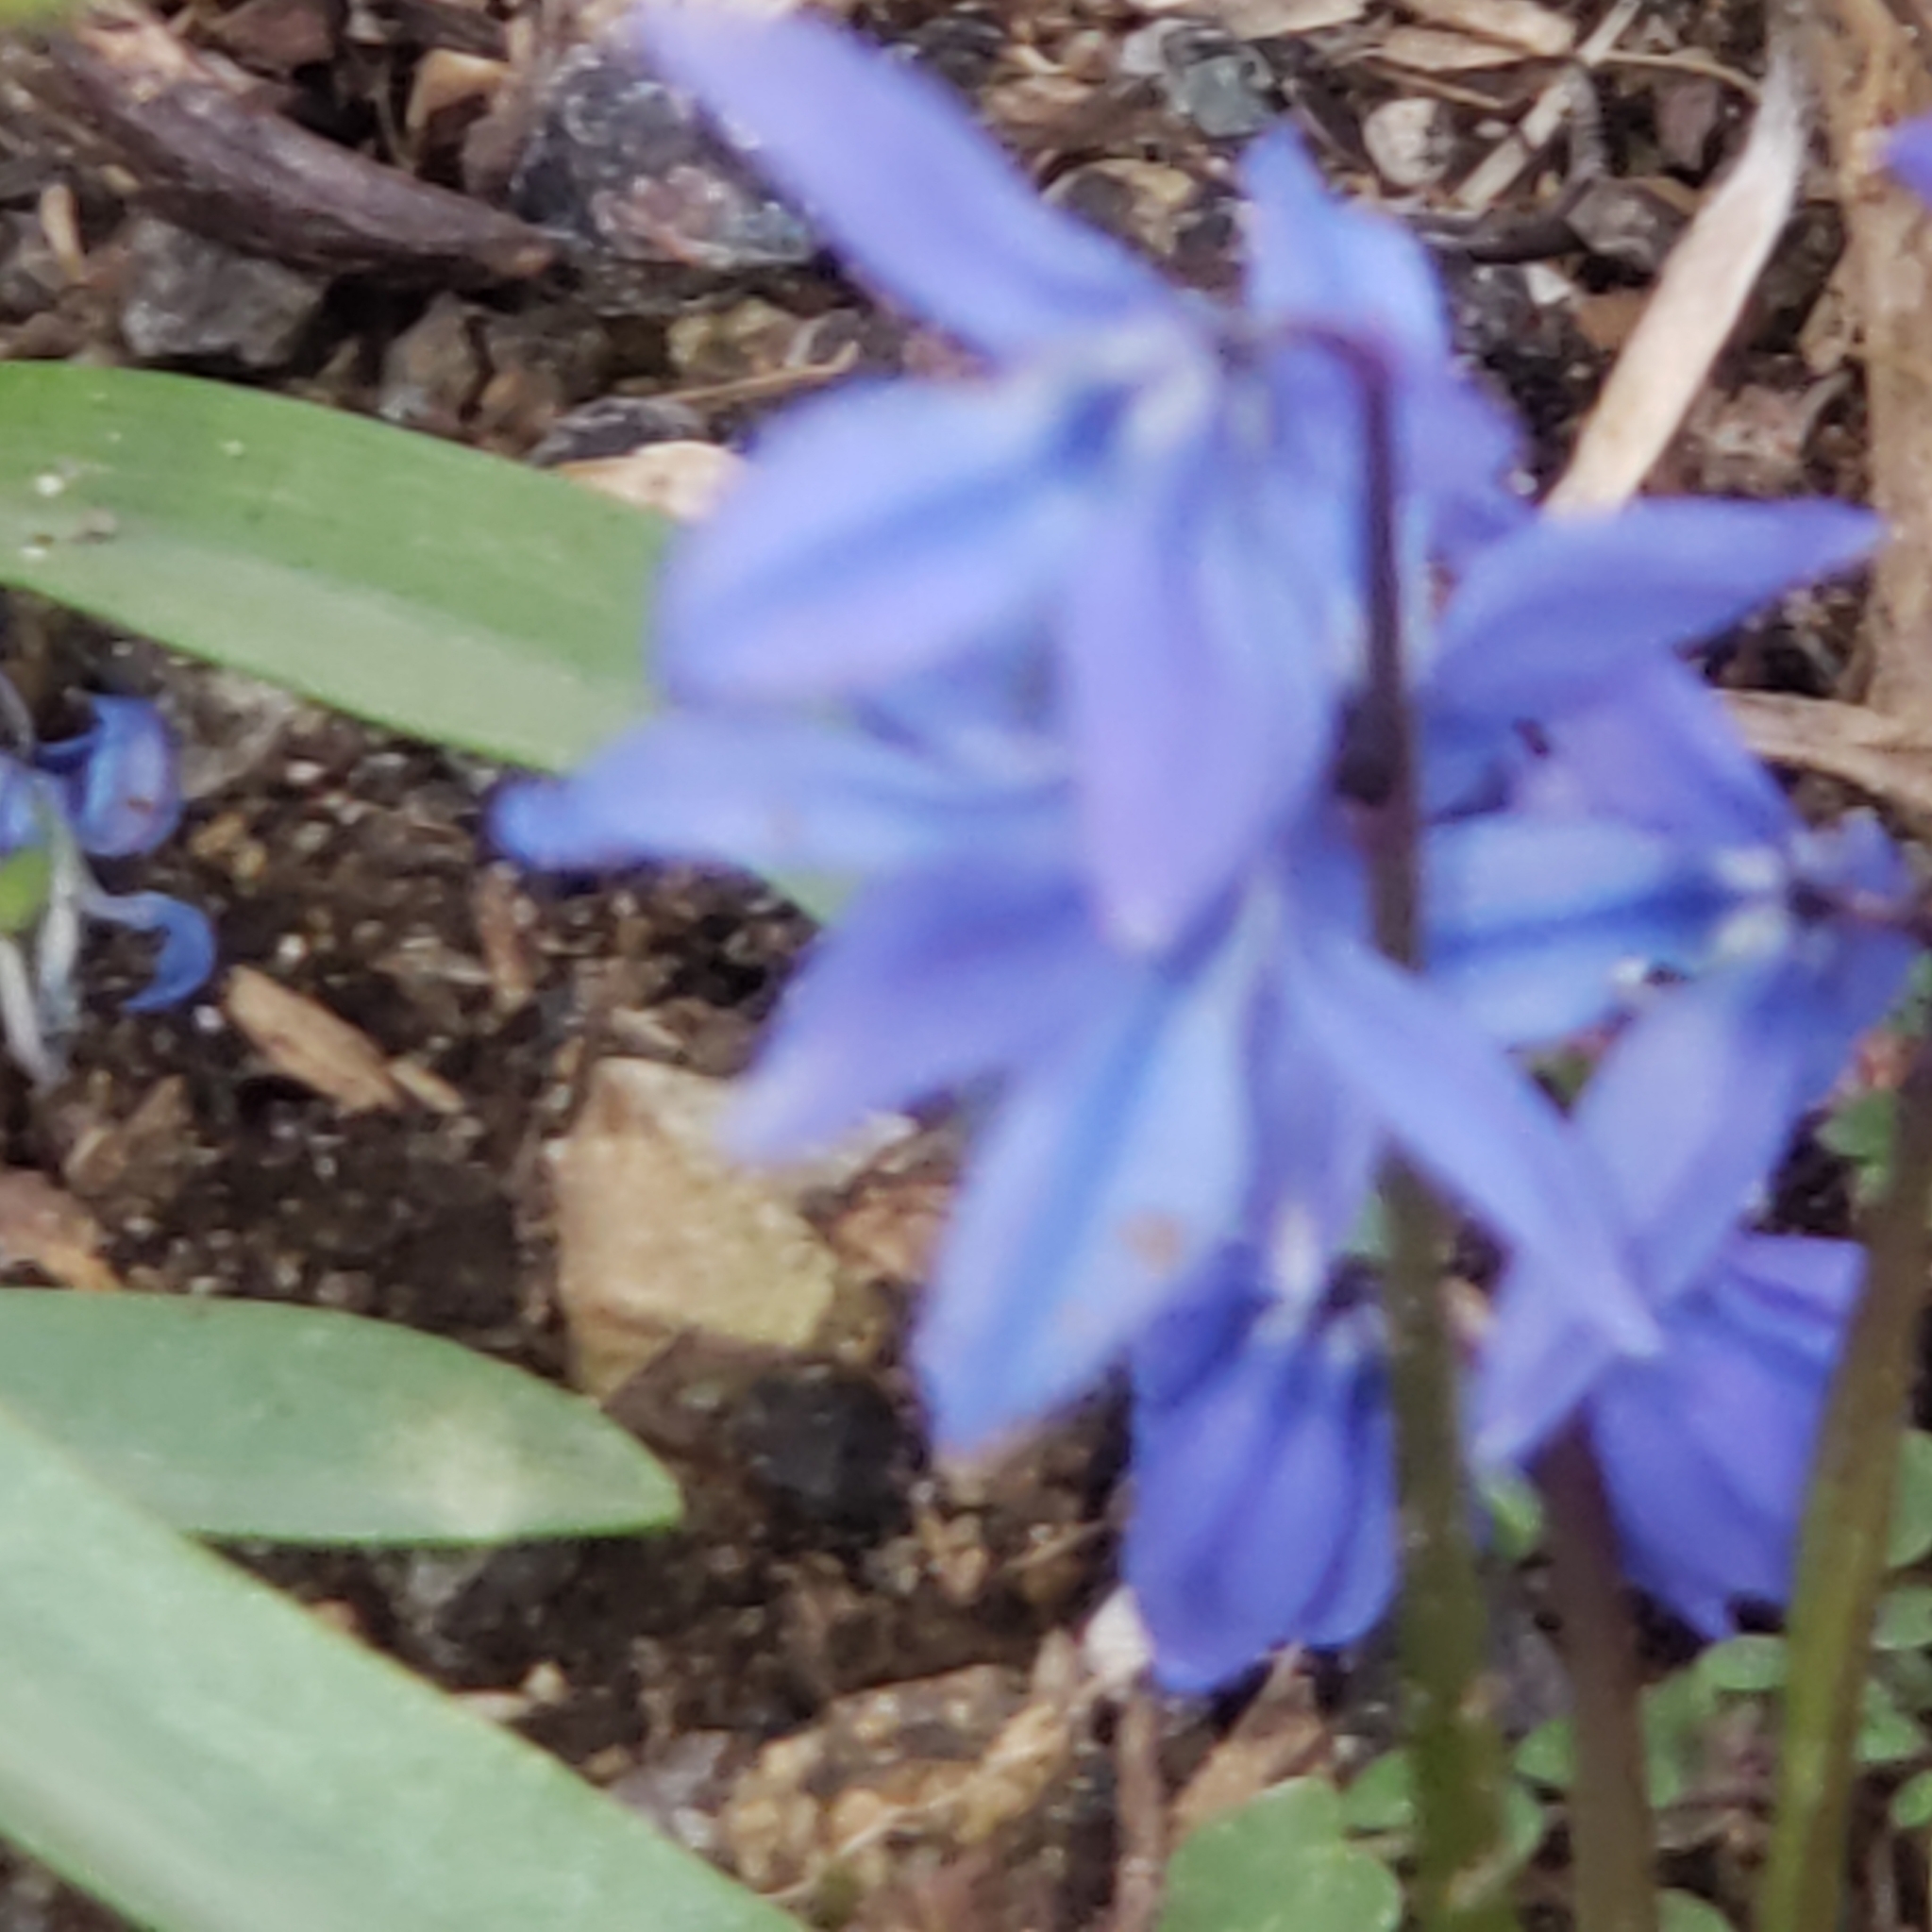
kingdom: Plantae
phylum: Tracheophyta
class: Liliopsida
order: Asparagales
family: Asparagaceae
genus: Scilla
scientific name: Scilla siberica
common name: Siberian squill
